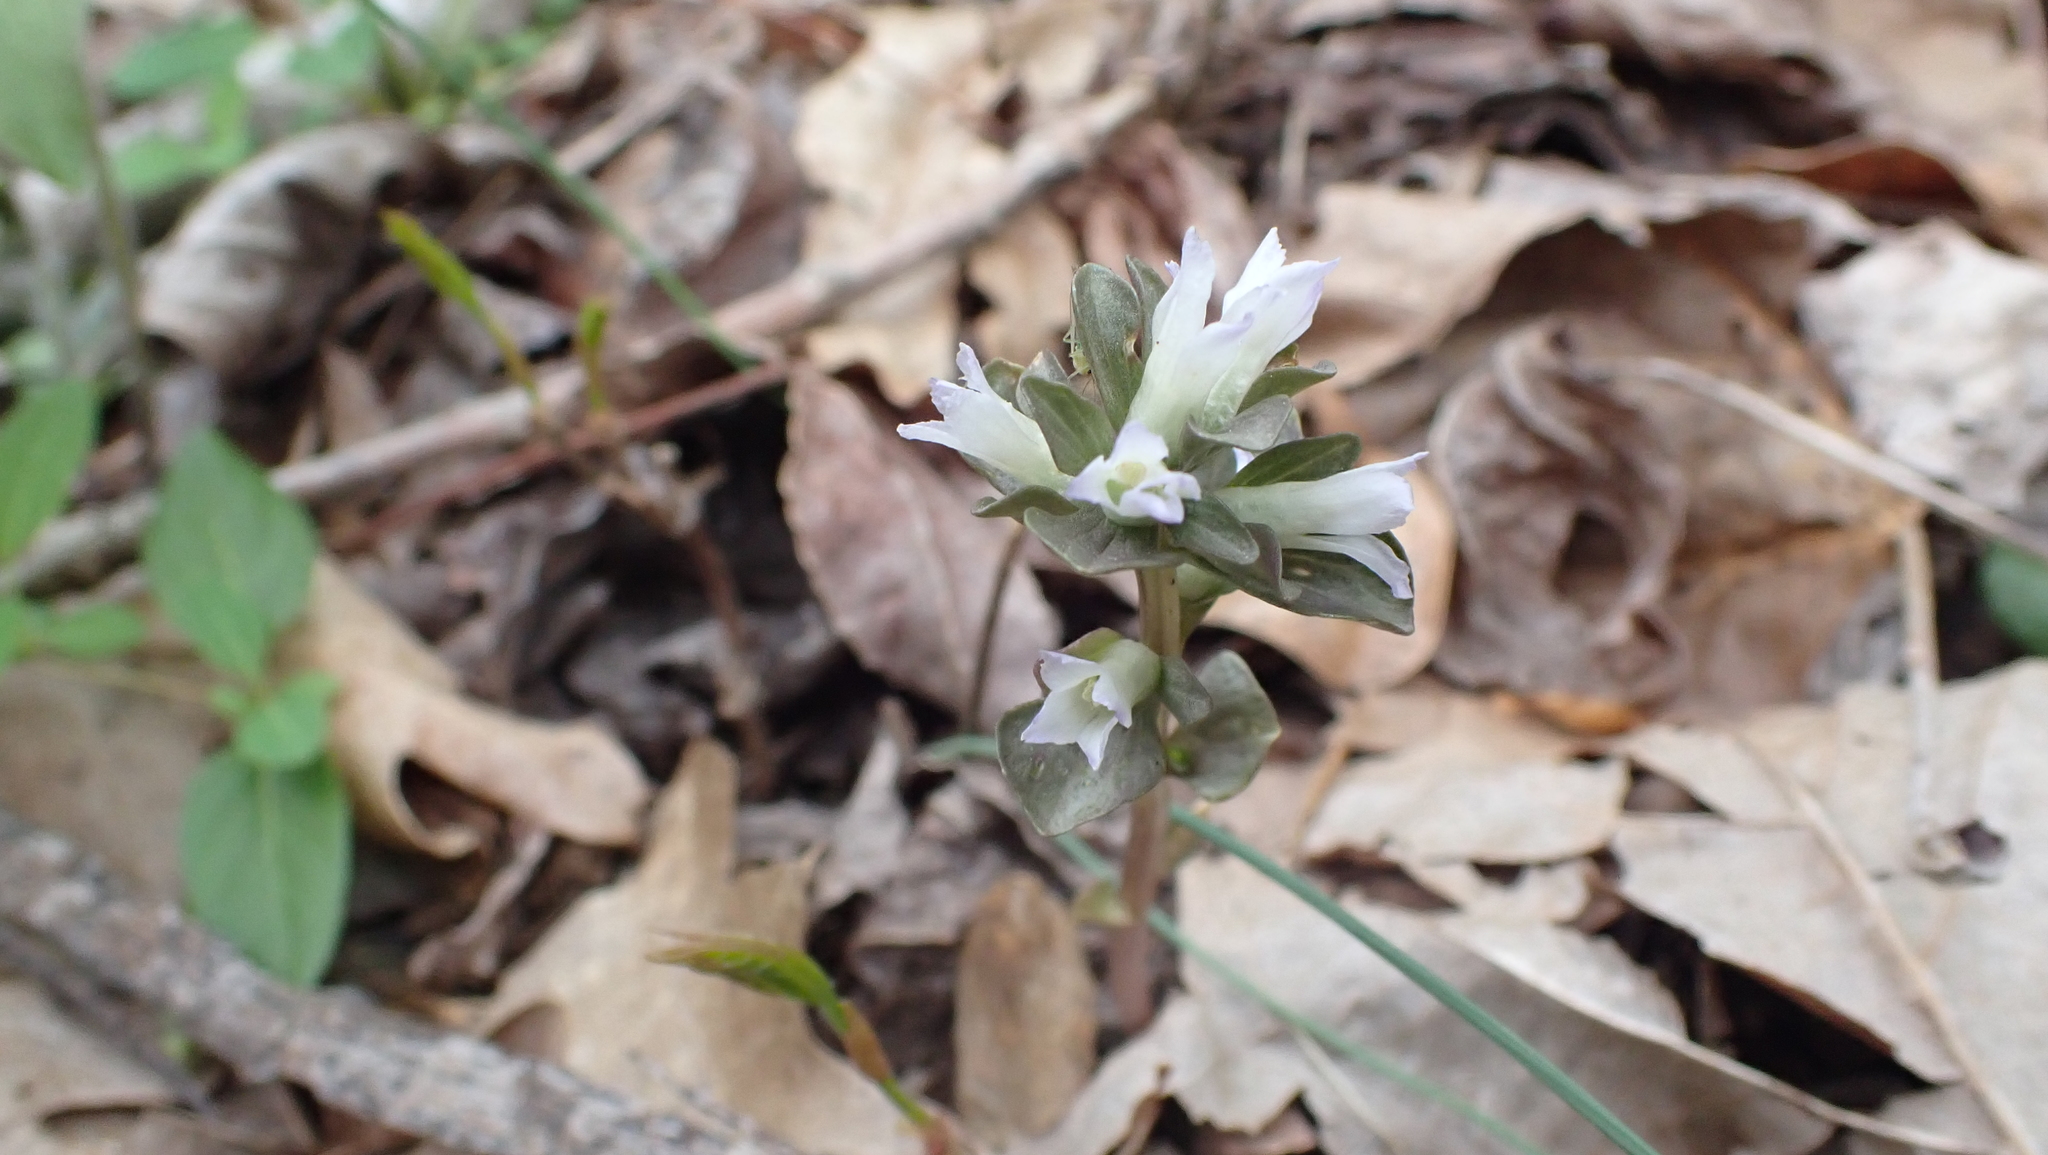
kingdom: Plantae
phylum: Tracheophyta
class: Magnoliopsida
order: Gentianales
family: Gentianaceae
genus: Obolaria
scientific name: Obolaria virginica
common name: Pennywort
